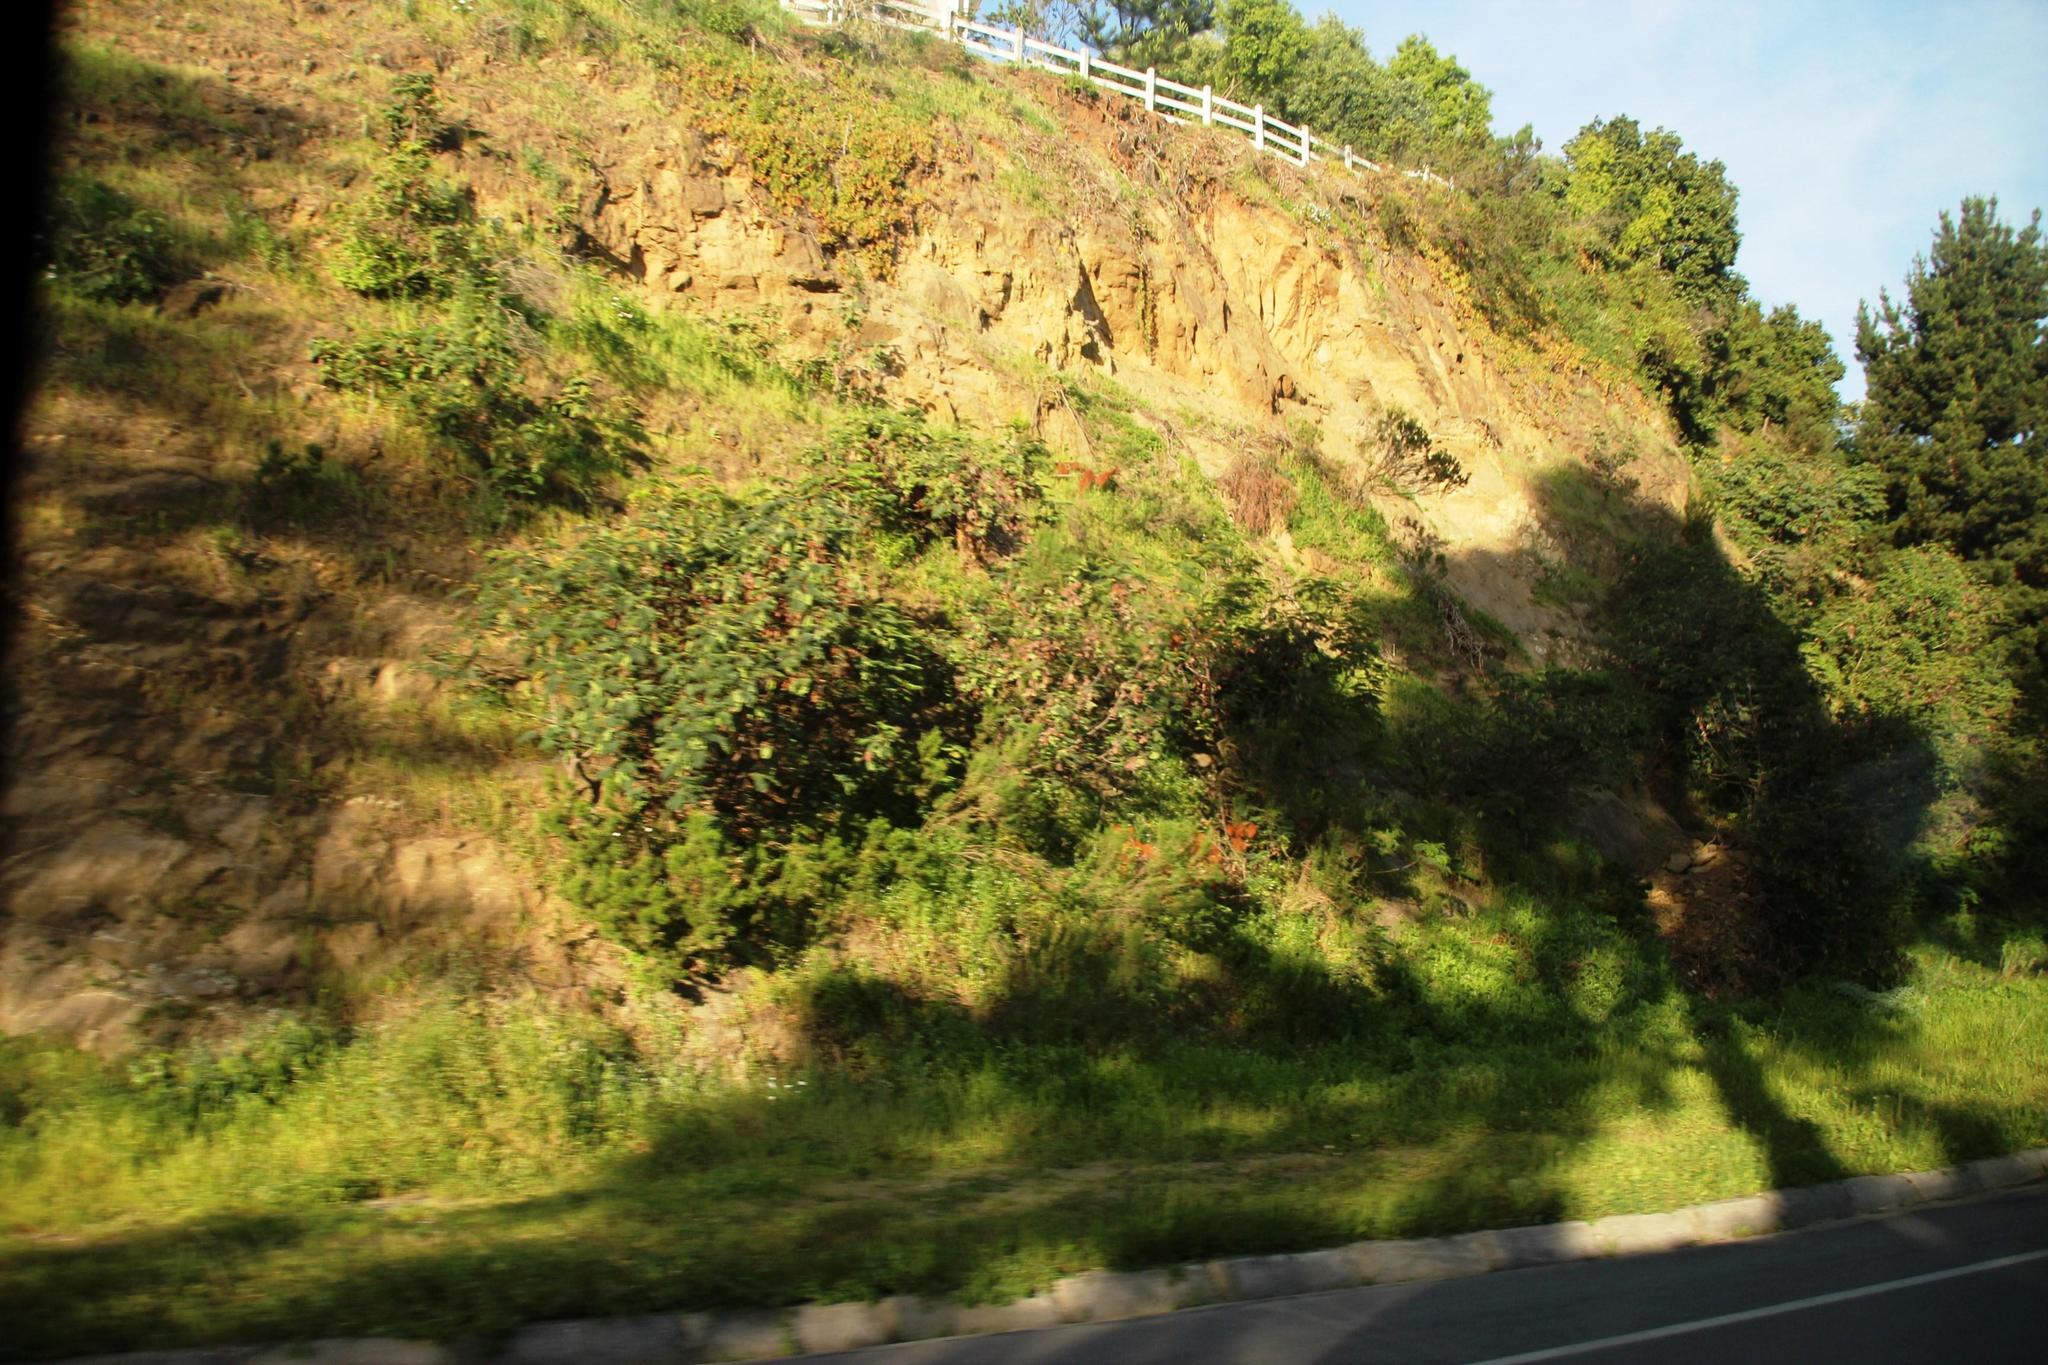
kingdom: Plantae
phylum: Tracheophyta
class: Magnoliopsida
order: Fabales
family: Fabaceae
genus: Paraserianthes
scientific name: Paraserianthes lophantha
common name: Plume albizia
